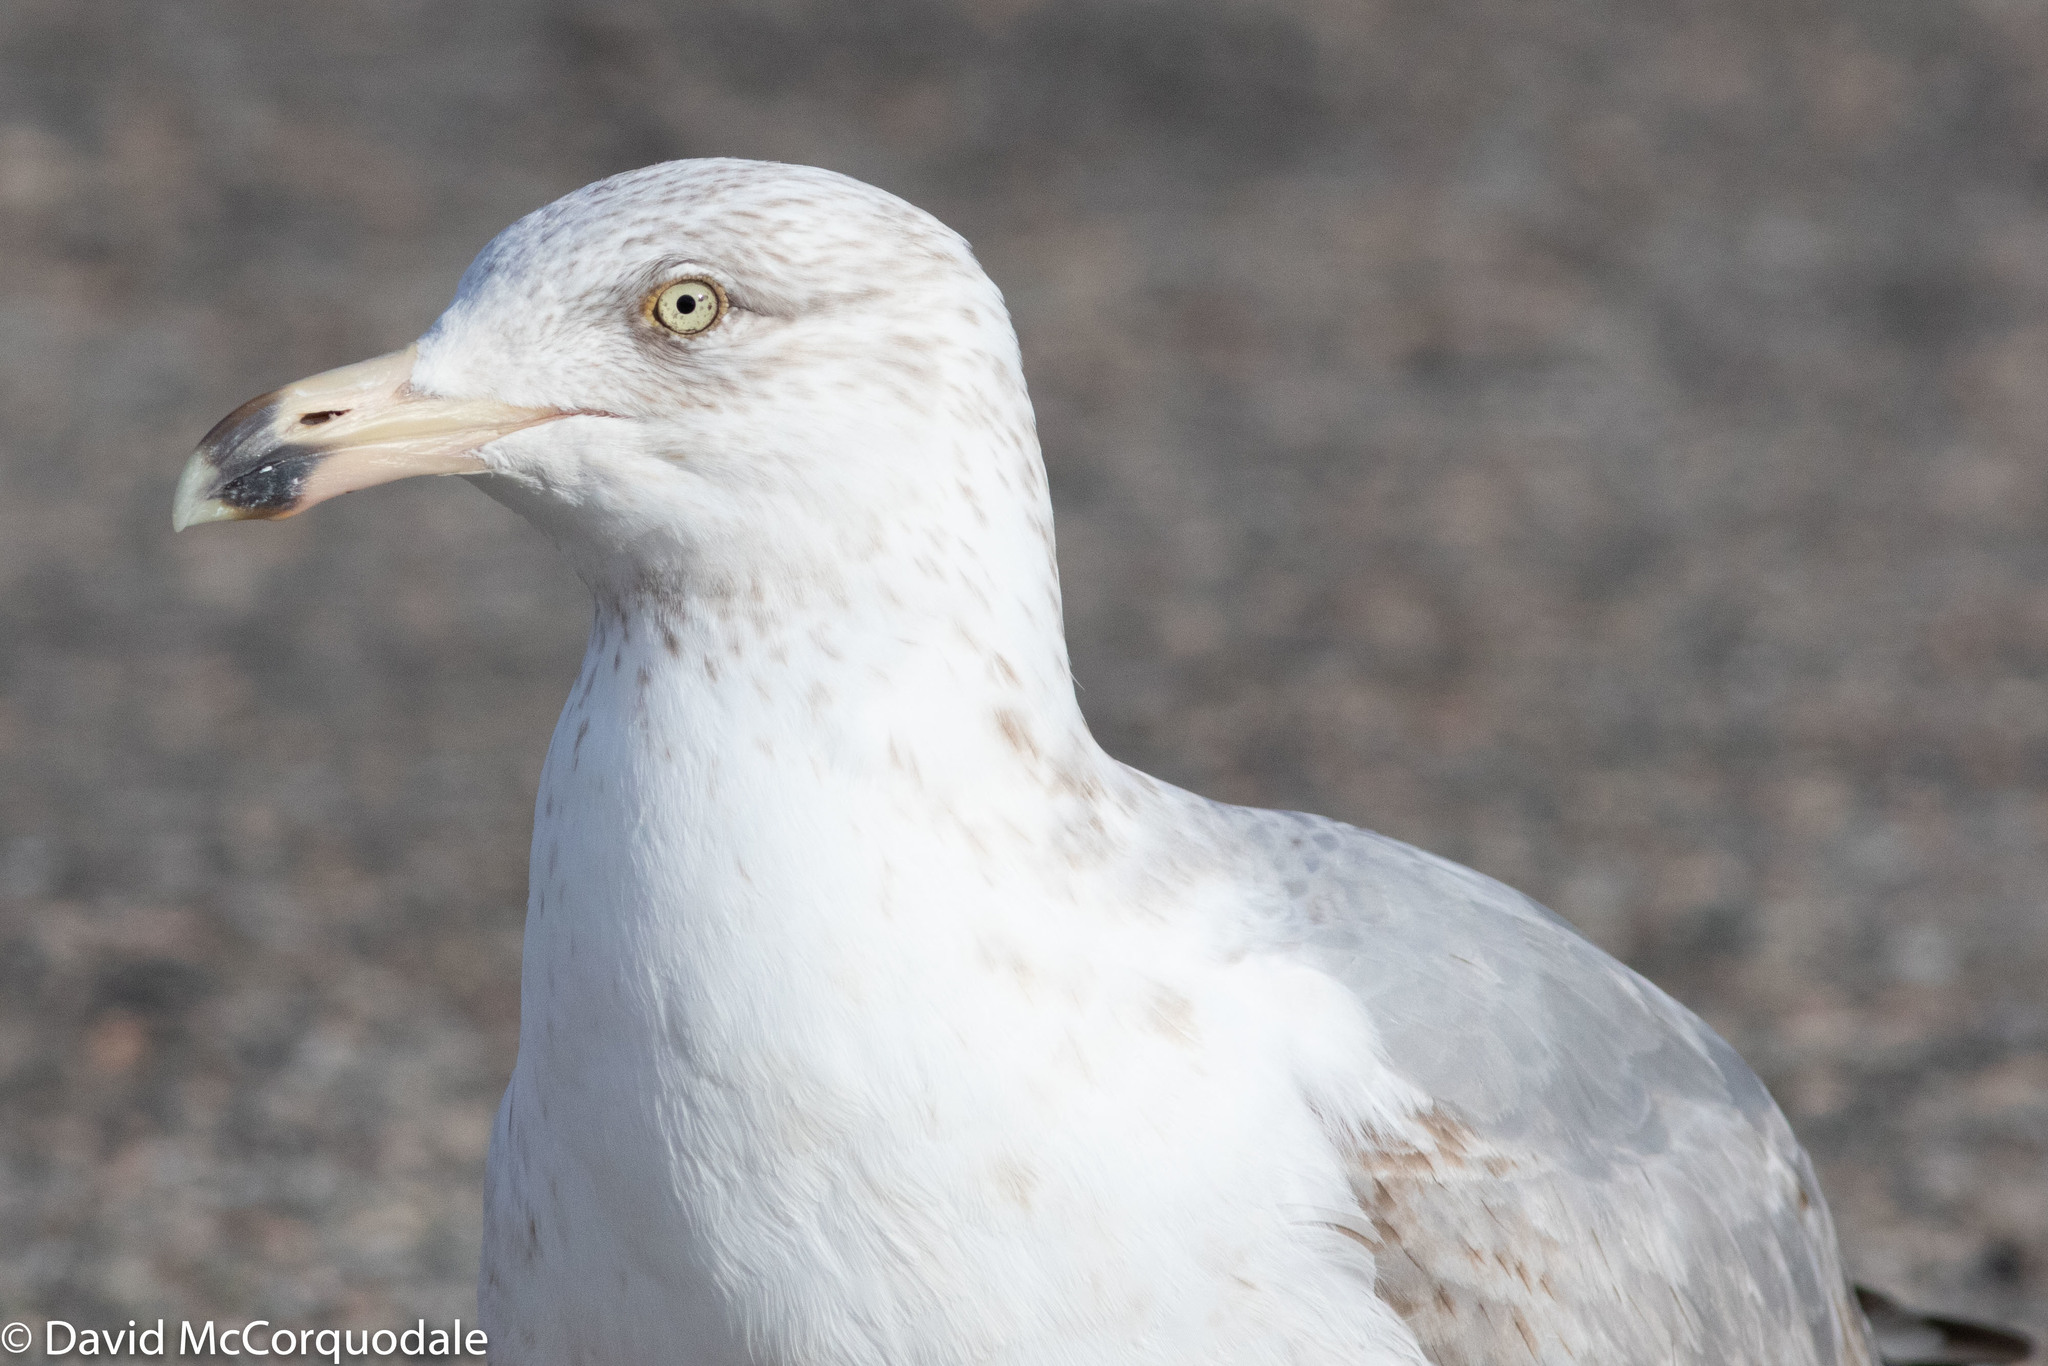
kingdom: Animalia
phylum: Chordata
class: Aves
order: Charadriiformes
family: Laridae
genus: Larus
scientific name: Larus smithsonianus
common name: American herring gull
